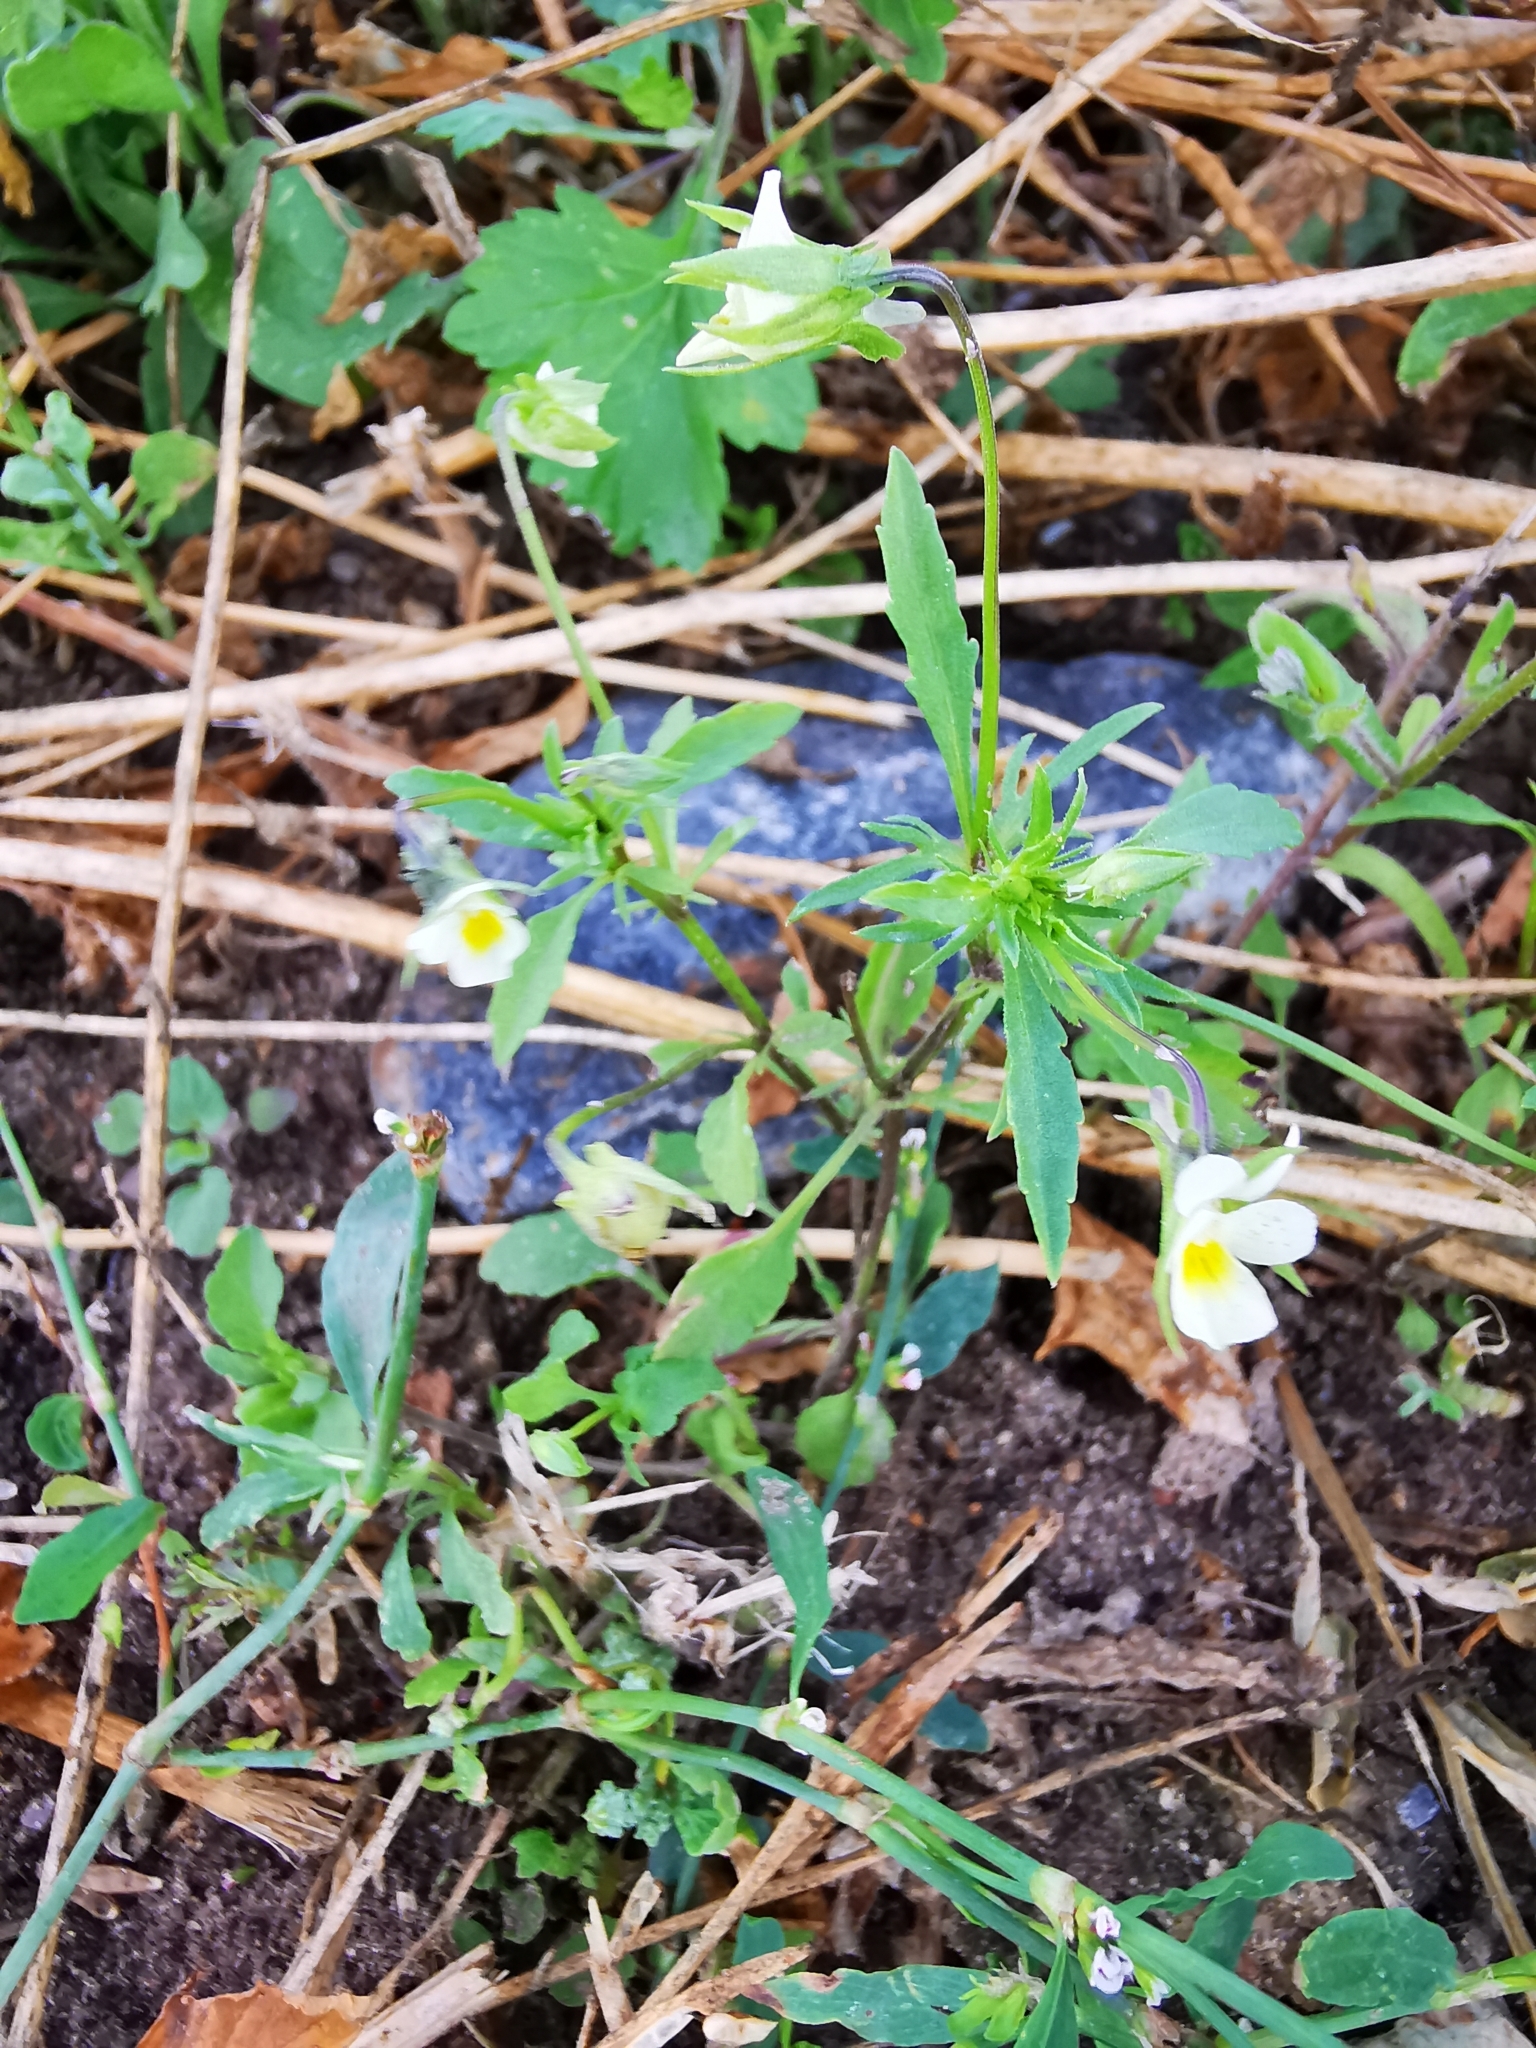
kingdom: Plantae
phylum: Tracheophyta
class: Magnoliopsida
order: Malpighiales
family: Violaceae
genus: Viola
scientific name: Viola arvensis
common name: Field pansy
